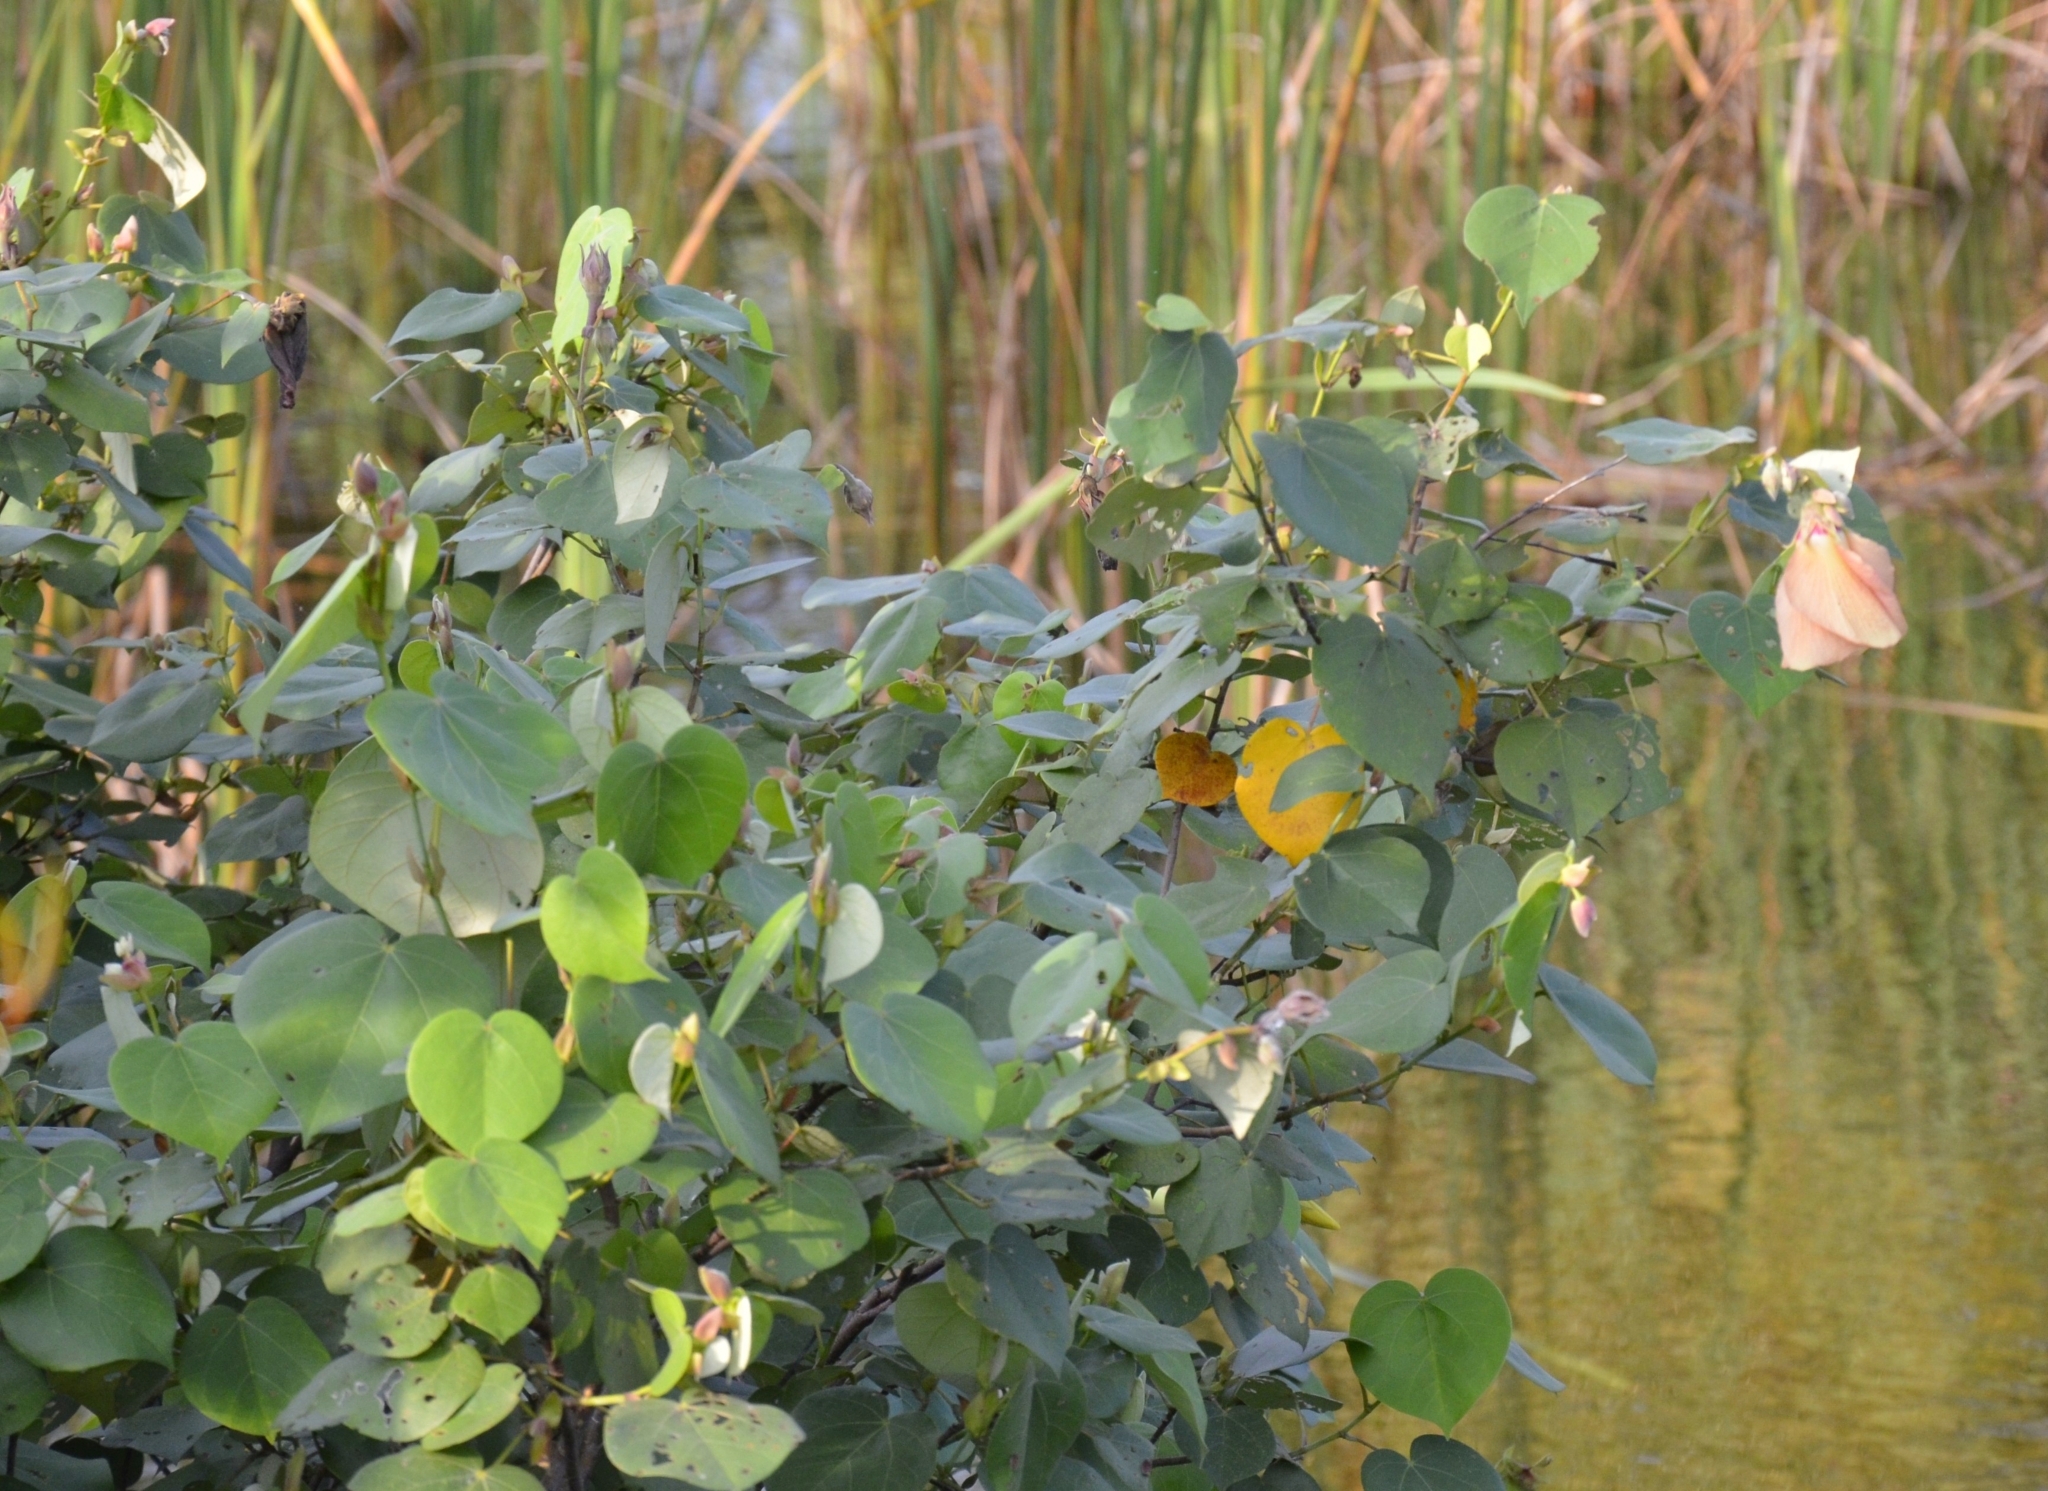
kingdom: Plantae
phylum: Tracheophyta
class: Magnoliopsida
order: Malvales
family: Malvaceae
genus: Talipariti
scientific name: Talipariti tiliaceum
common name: Sea hibiscus
